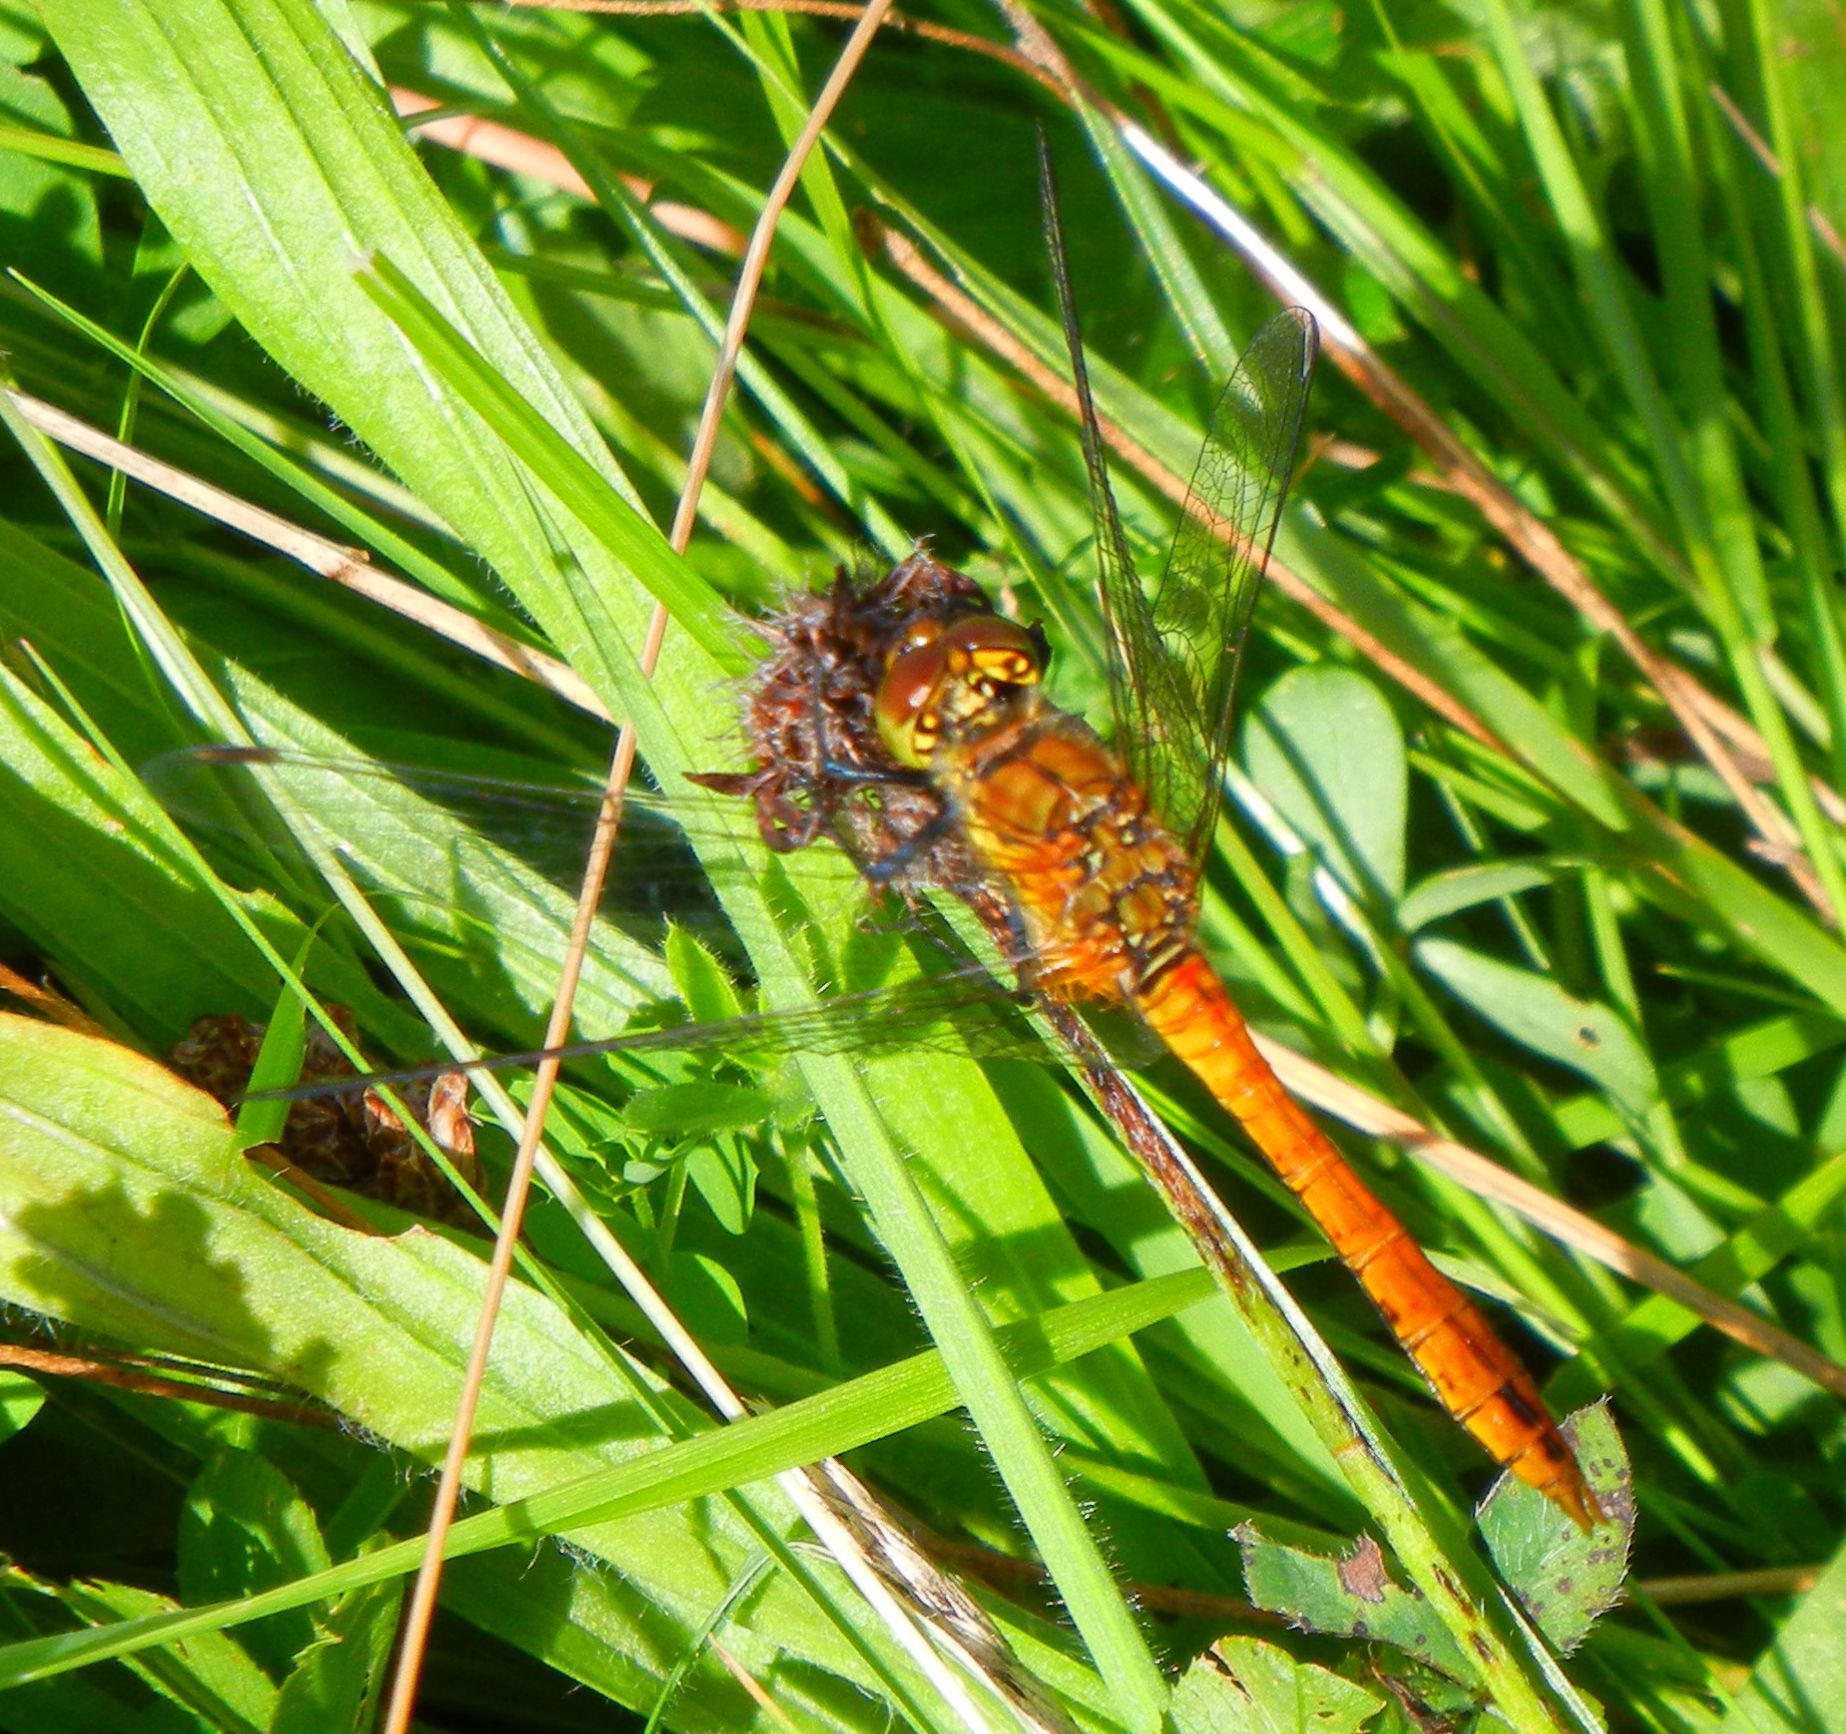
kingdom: Animalia
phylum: Arthropoda
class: Insecta
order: Odonata
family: Libellulidae
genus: Sympetrum
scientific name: Sympetrum sanguineum
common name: Ruddy darter
